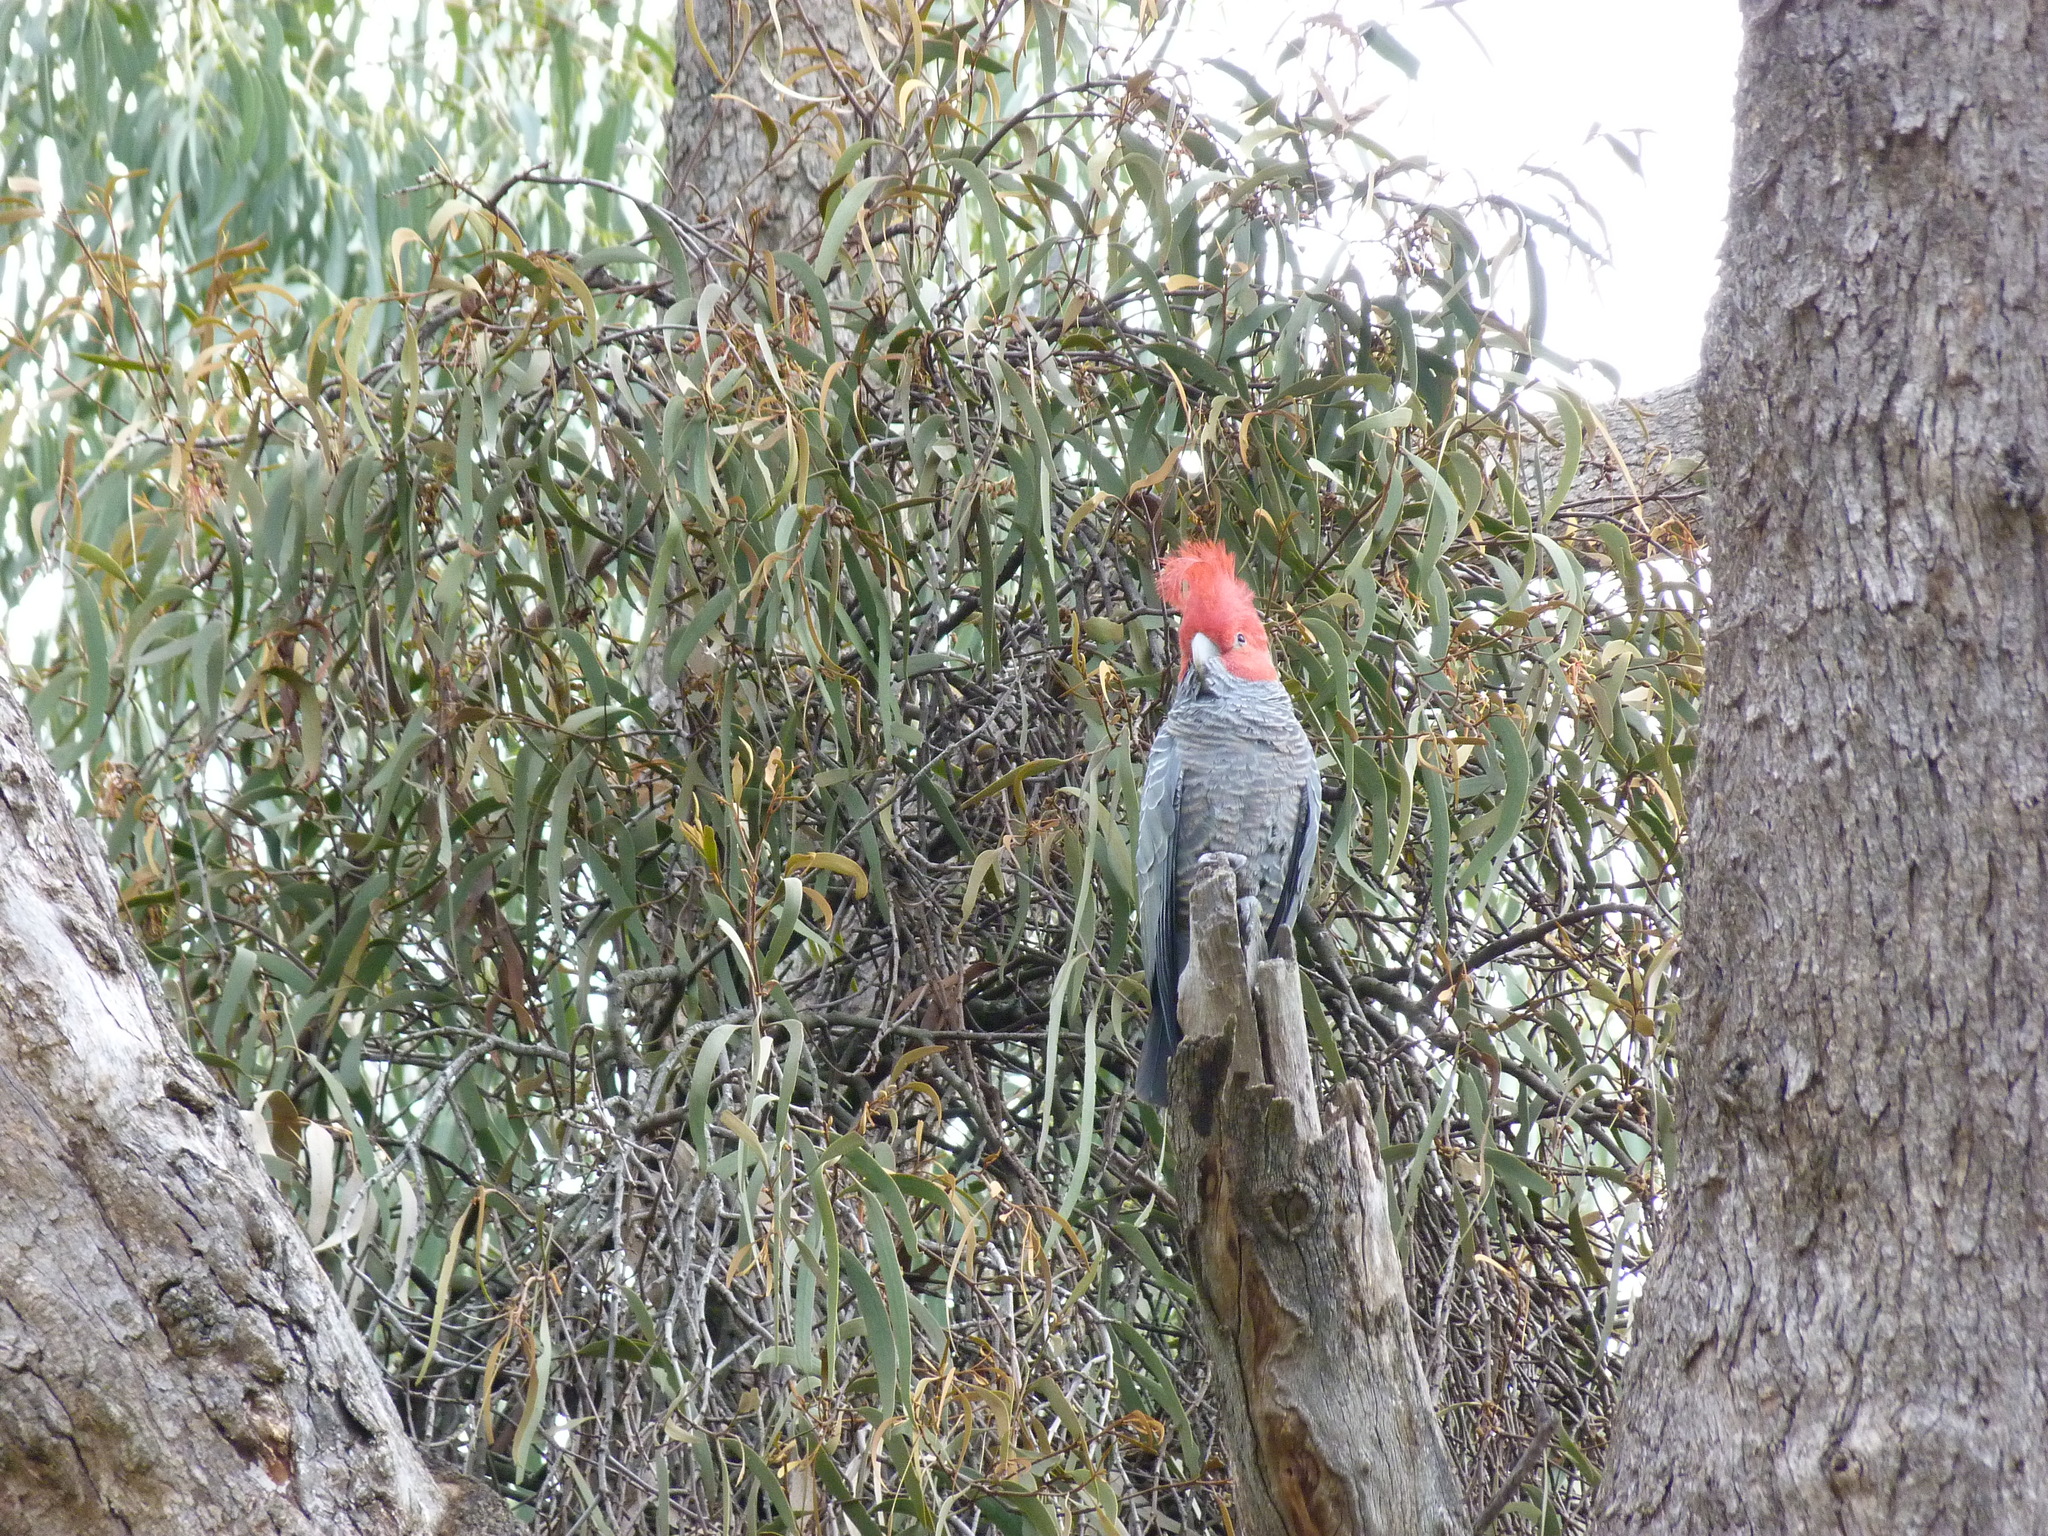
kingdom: Animalia
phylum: Chordata
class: Aves
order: Psittaciformes
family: Psittacidae
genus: Callocephalon
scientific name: Callocephalon fimbriatum
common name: Gang-gang cockatoo
